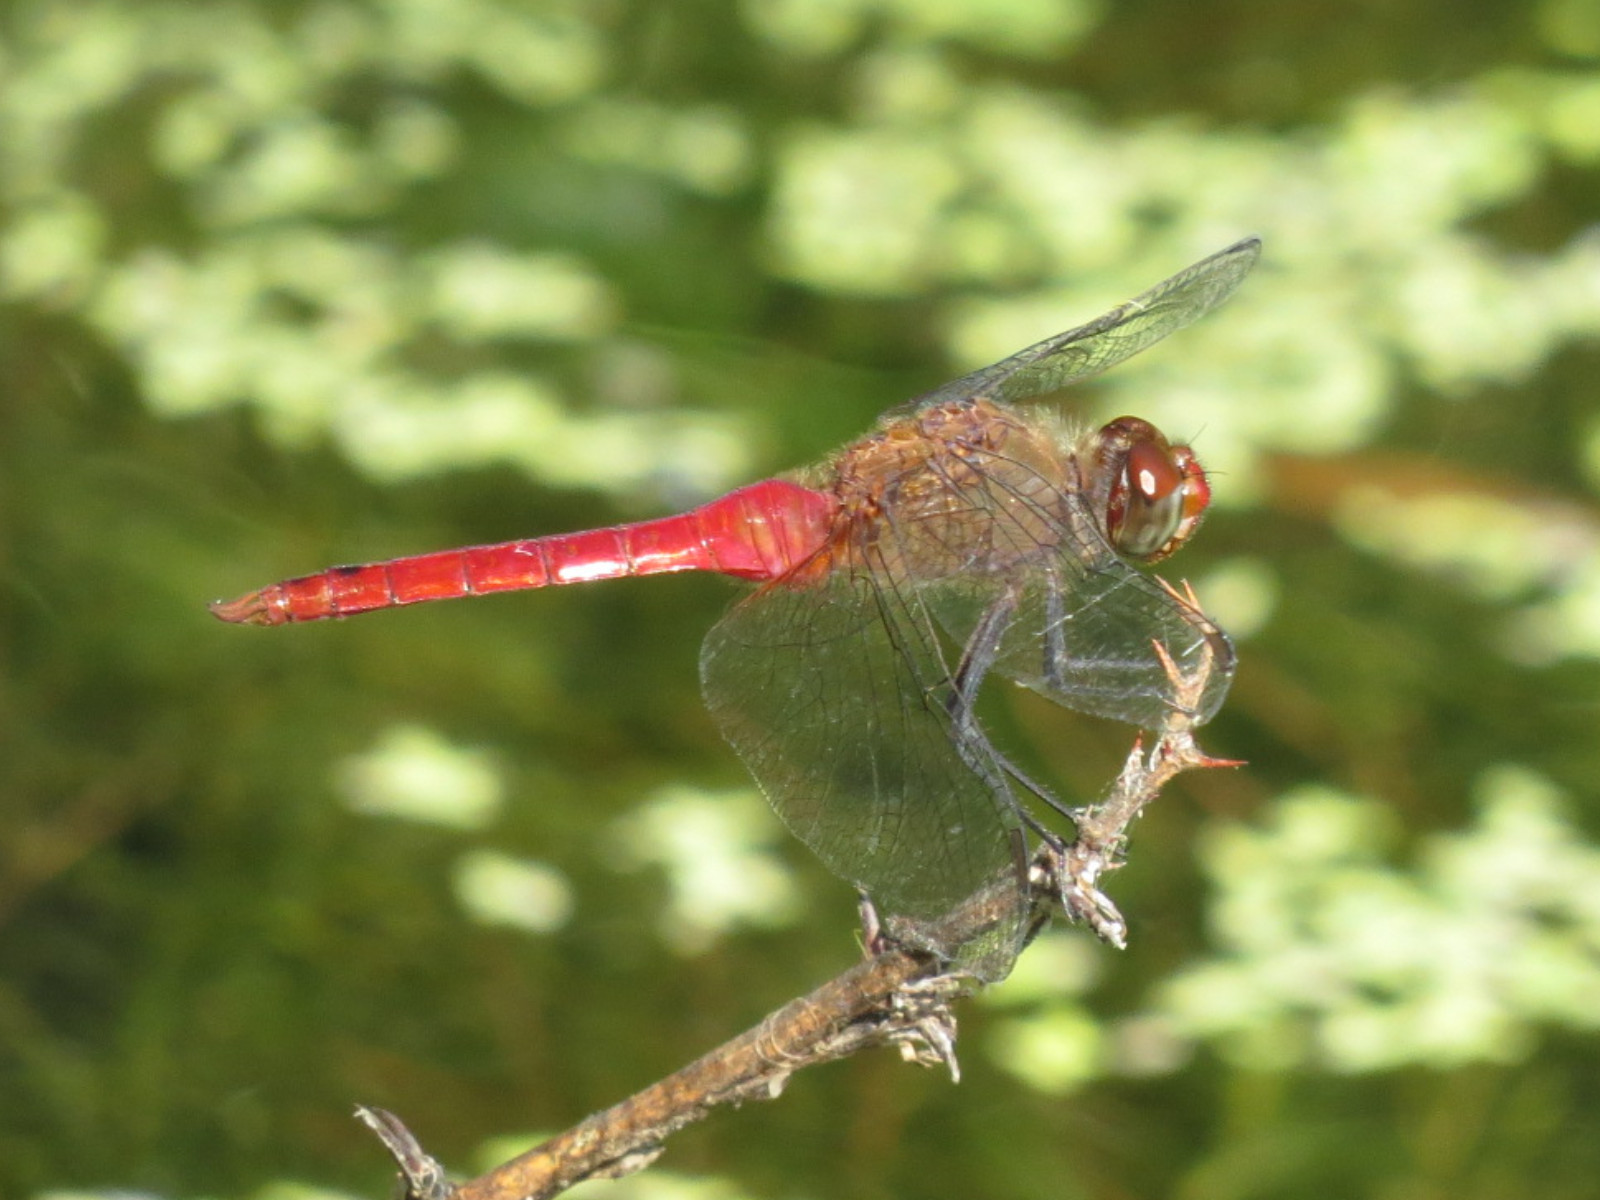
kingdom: Animalia
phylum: Arthropoda
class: Insecta
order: Odonata
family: Libellulidae
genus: Brachymesia
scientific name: Brachymesia furcata
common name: Red-taled pennant
